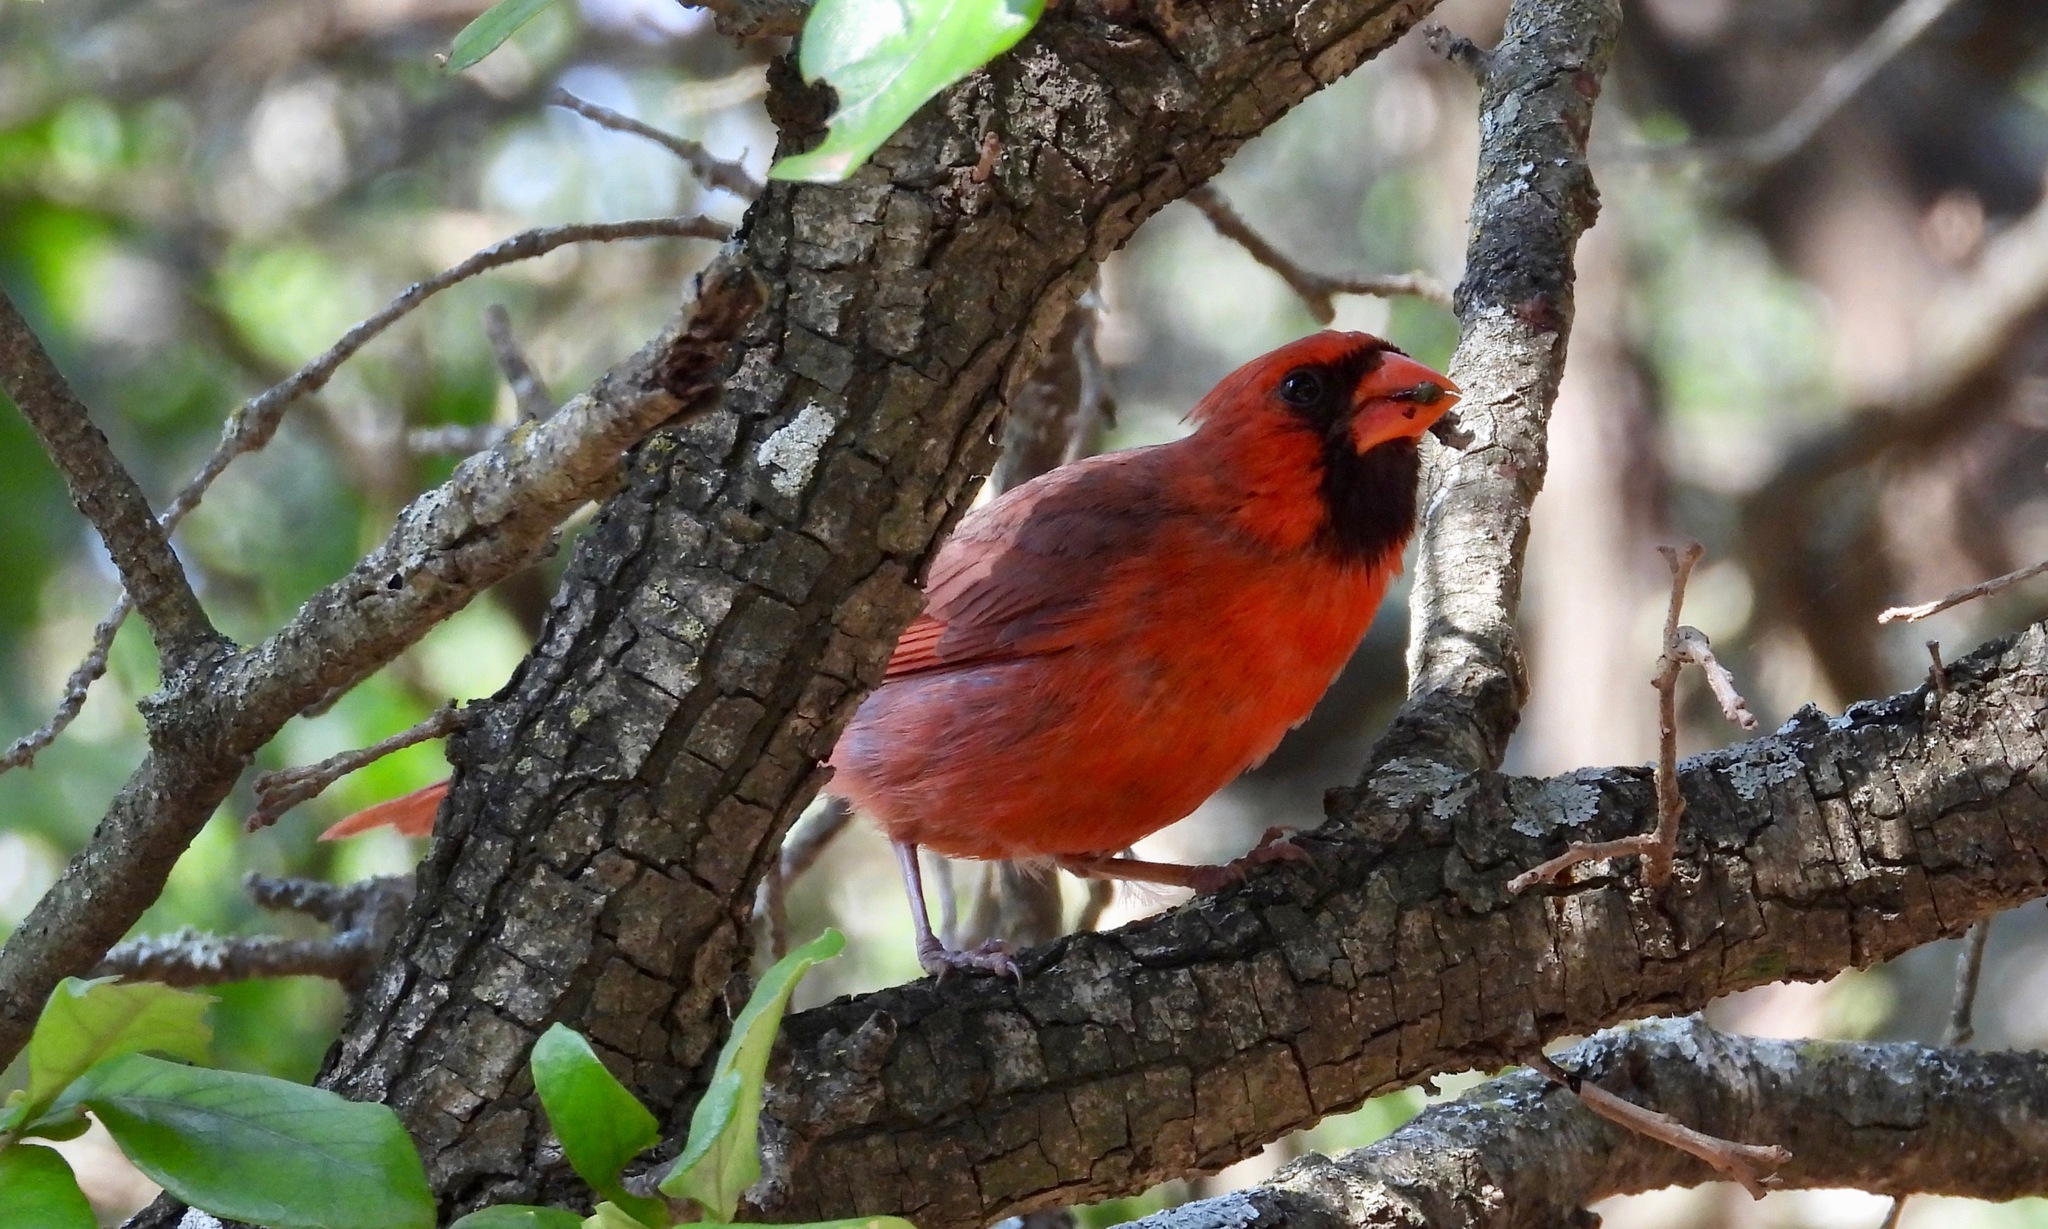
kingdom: Animalia
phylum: Chordata
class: Aves
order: Passeriformes
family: Cardinalidae
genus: Cardinalis
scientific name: Cardinalis cardinalis
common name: Northern cardinal
